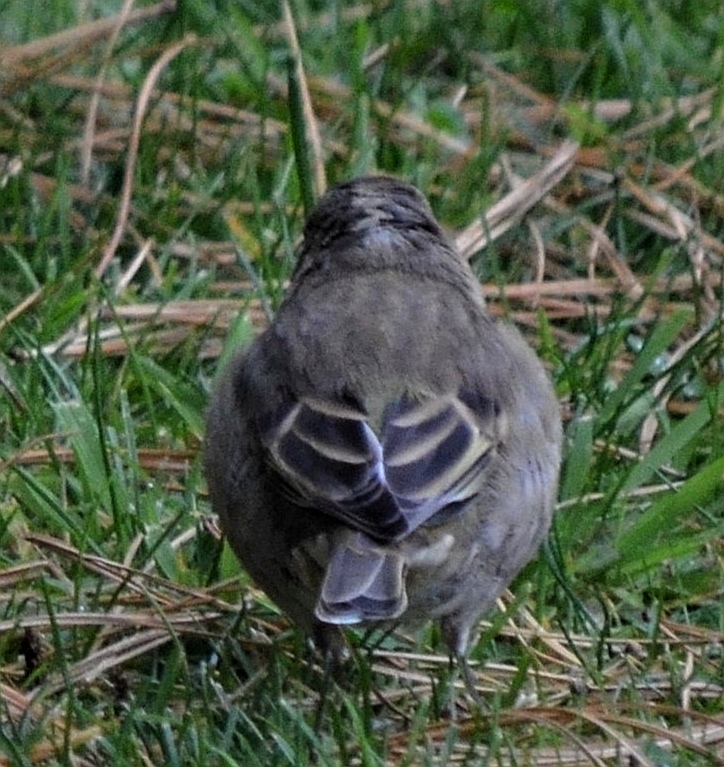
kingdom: Animalia
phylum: Chordata
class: Aves
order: Passeriformes
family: Fringillidae
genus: Fringilla
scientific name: Fringilla coelebs
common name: Common chaffinch
